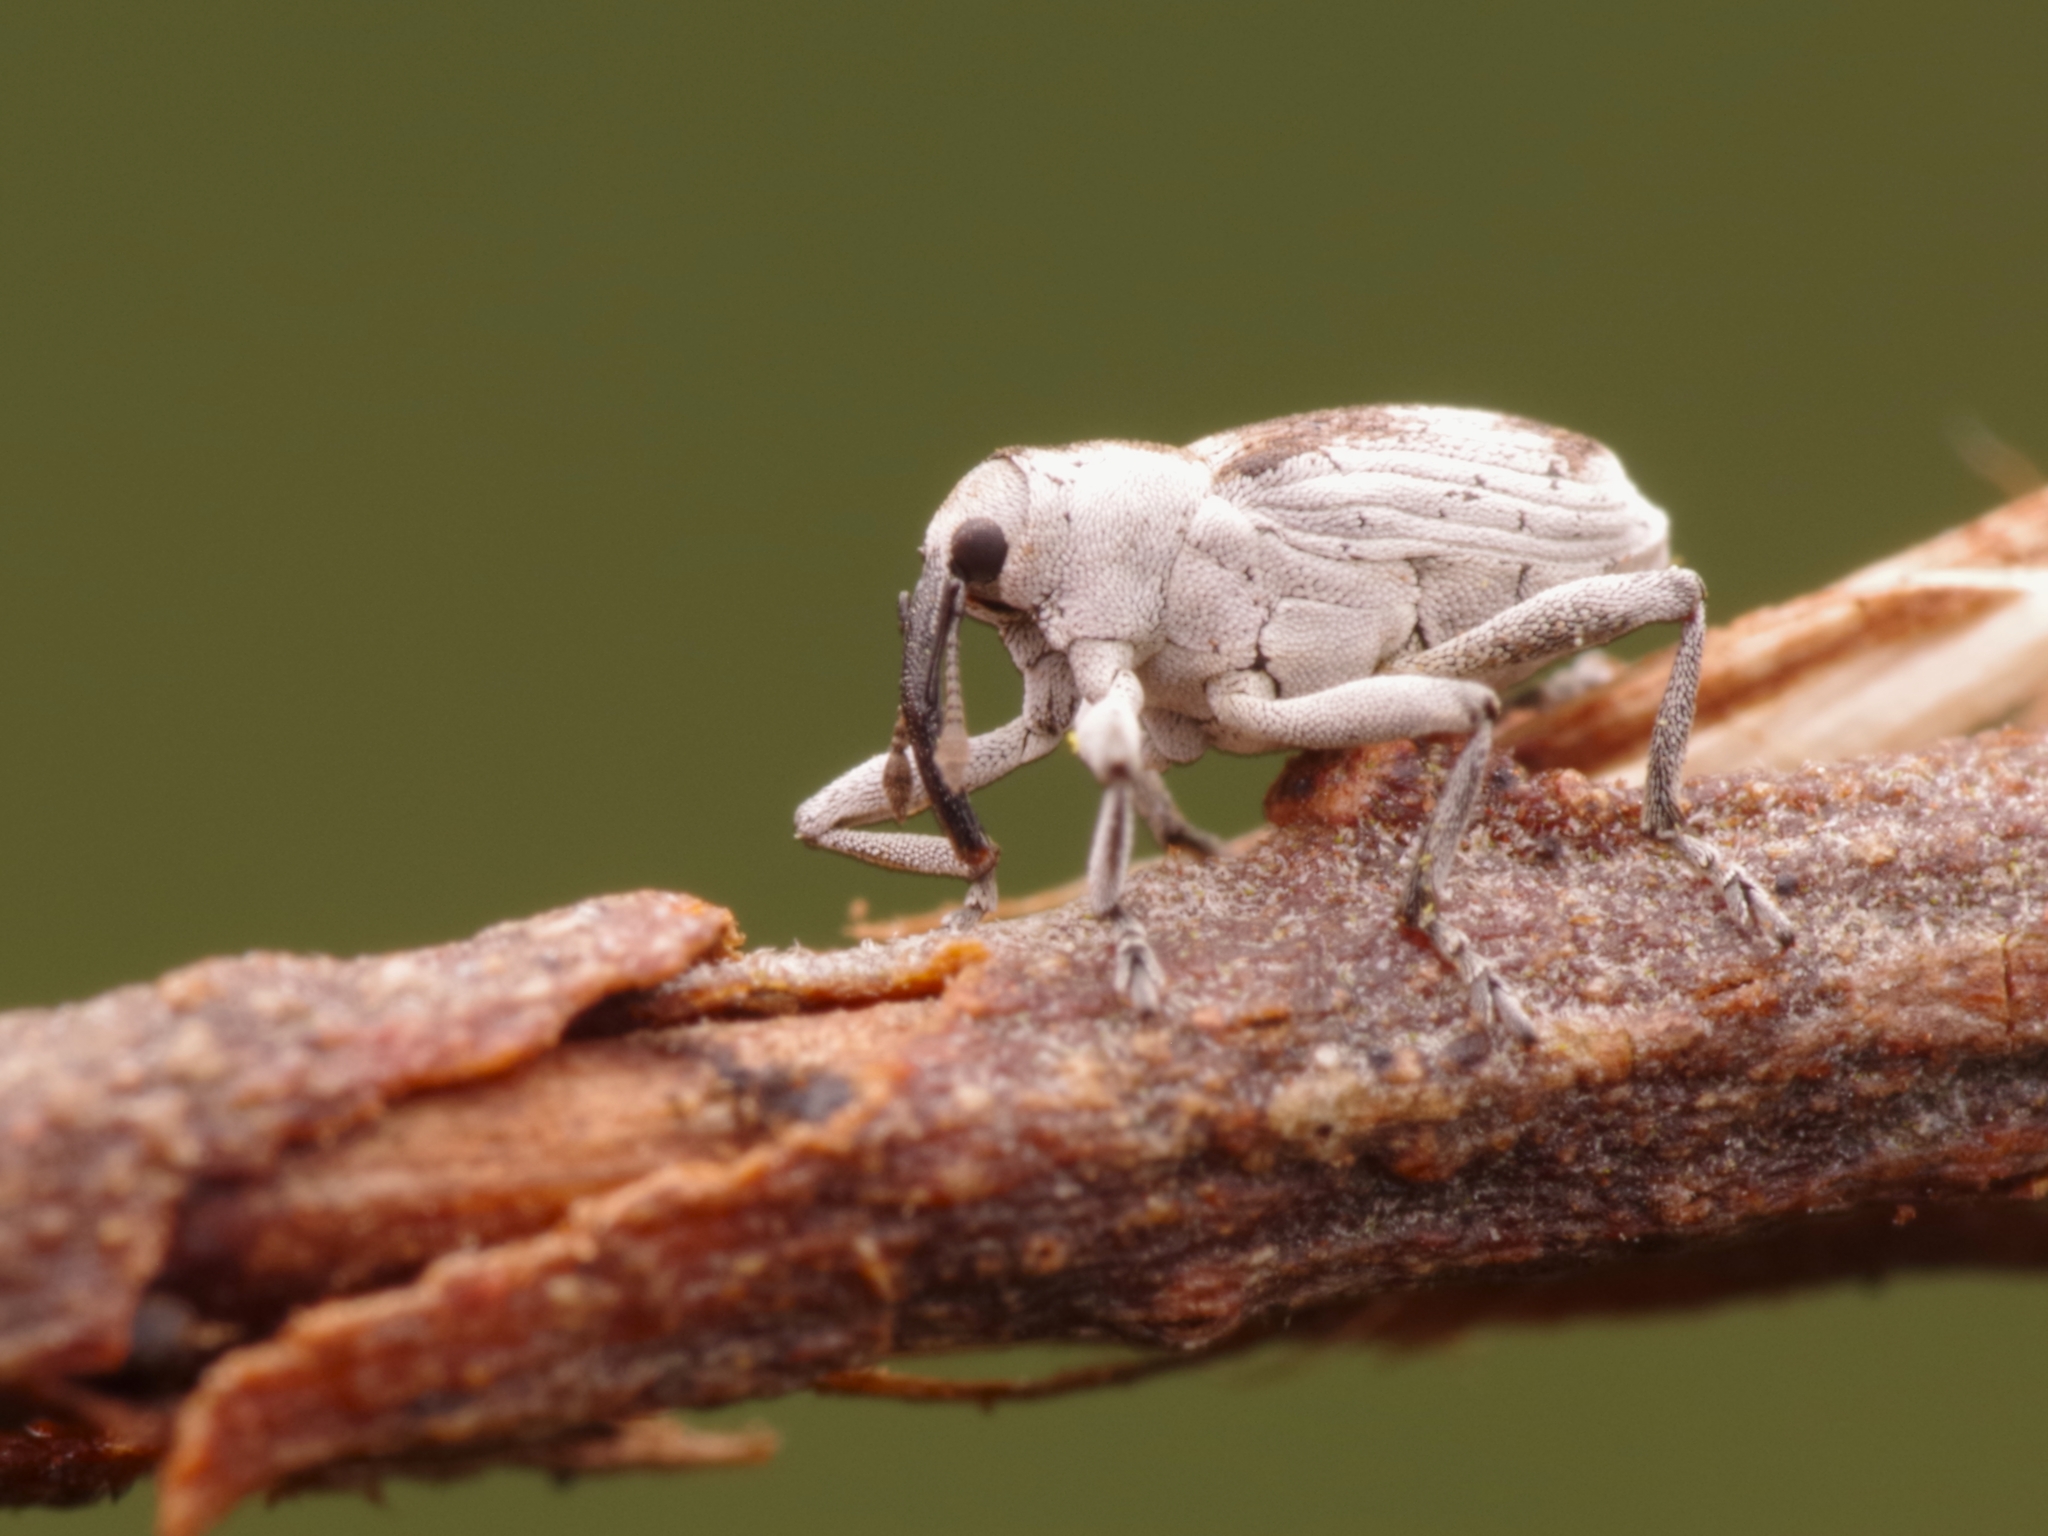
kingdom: Animalia
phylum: Arthropoda
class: Insecta
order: Coleoptera
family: Curculionidae
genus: Poophagus
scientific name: Poophagus sisymbrii
